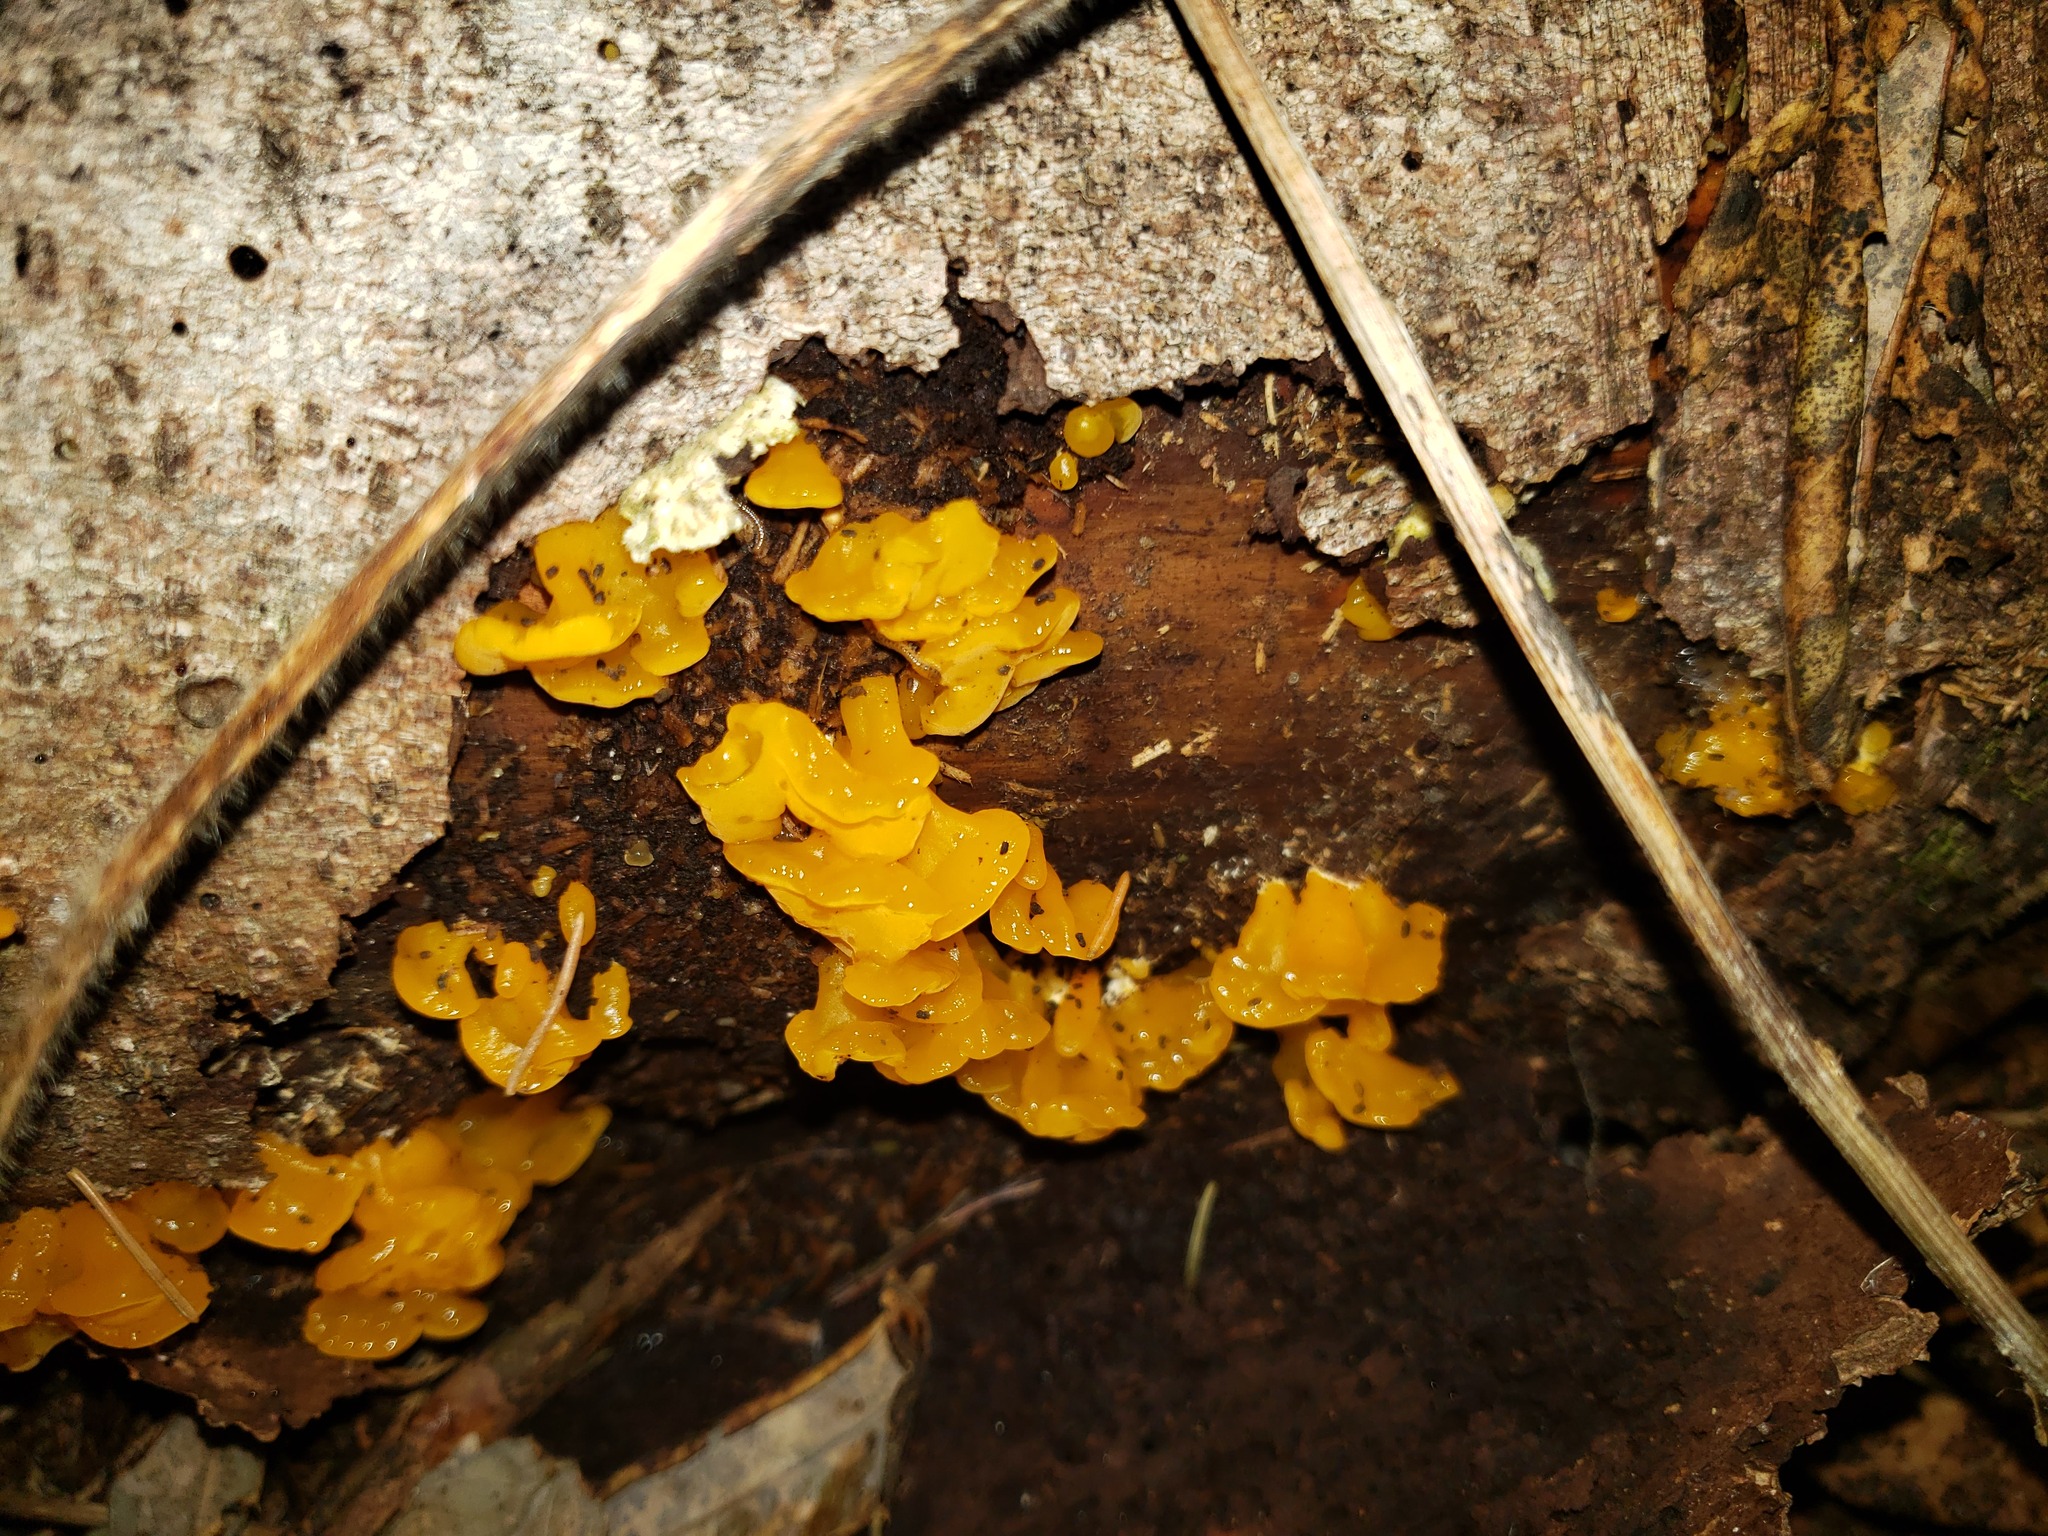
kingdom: Fungi
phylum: Basidiomycota
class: Dacrymycetes
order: Dacrymycetales
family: Dacrymycetaceae
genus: Dacrymyces
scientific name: Dacrymyces chrysospermus
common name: Orange jelly spot
